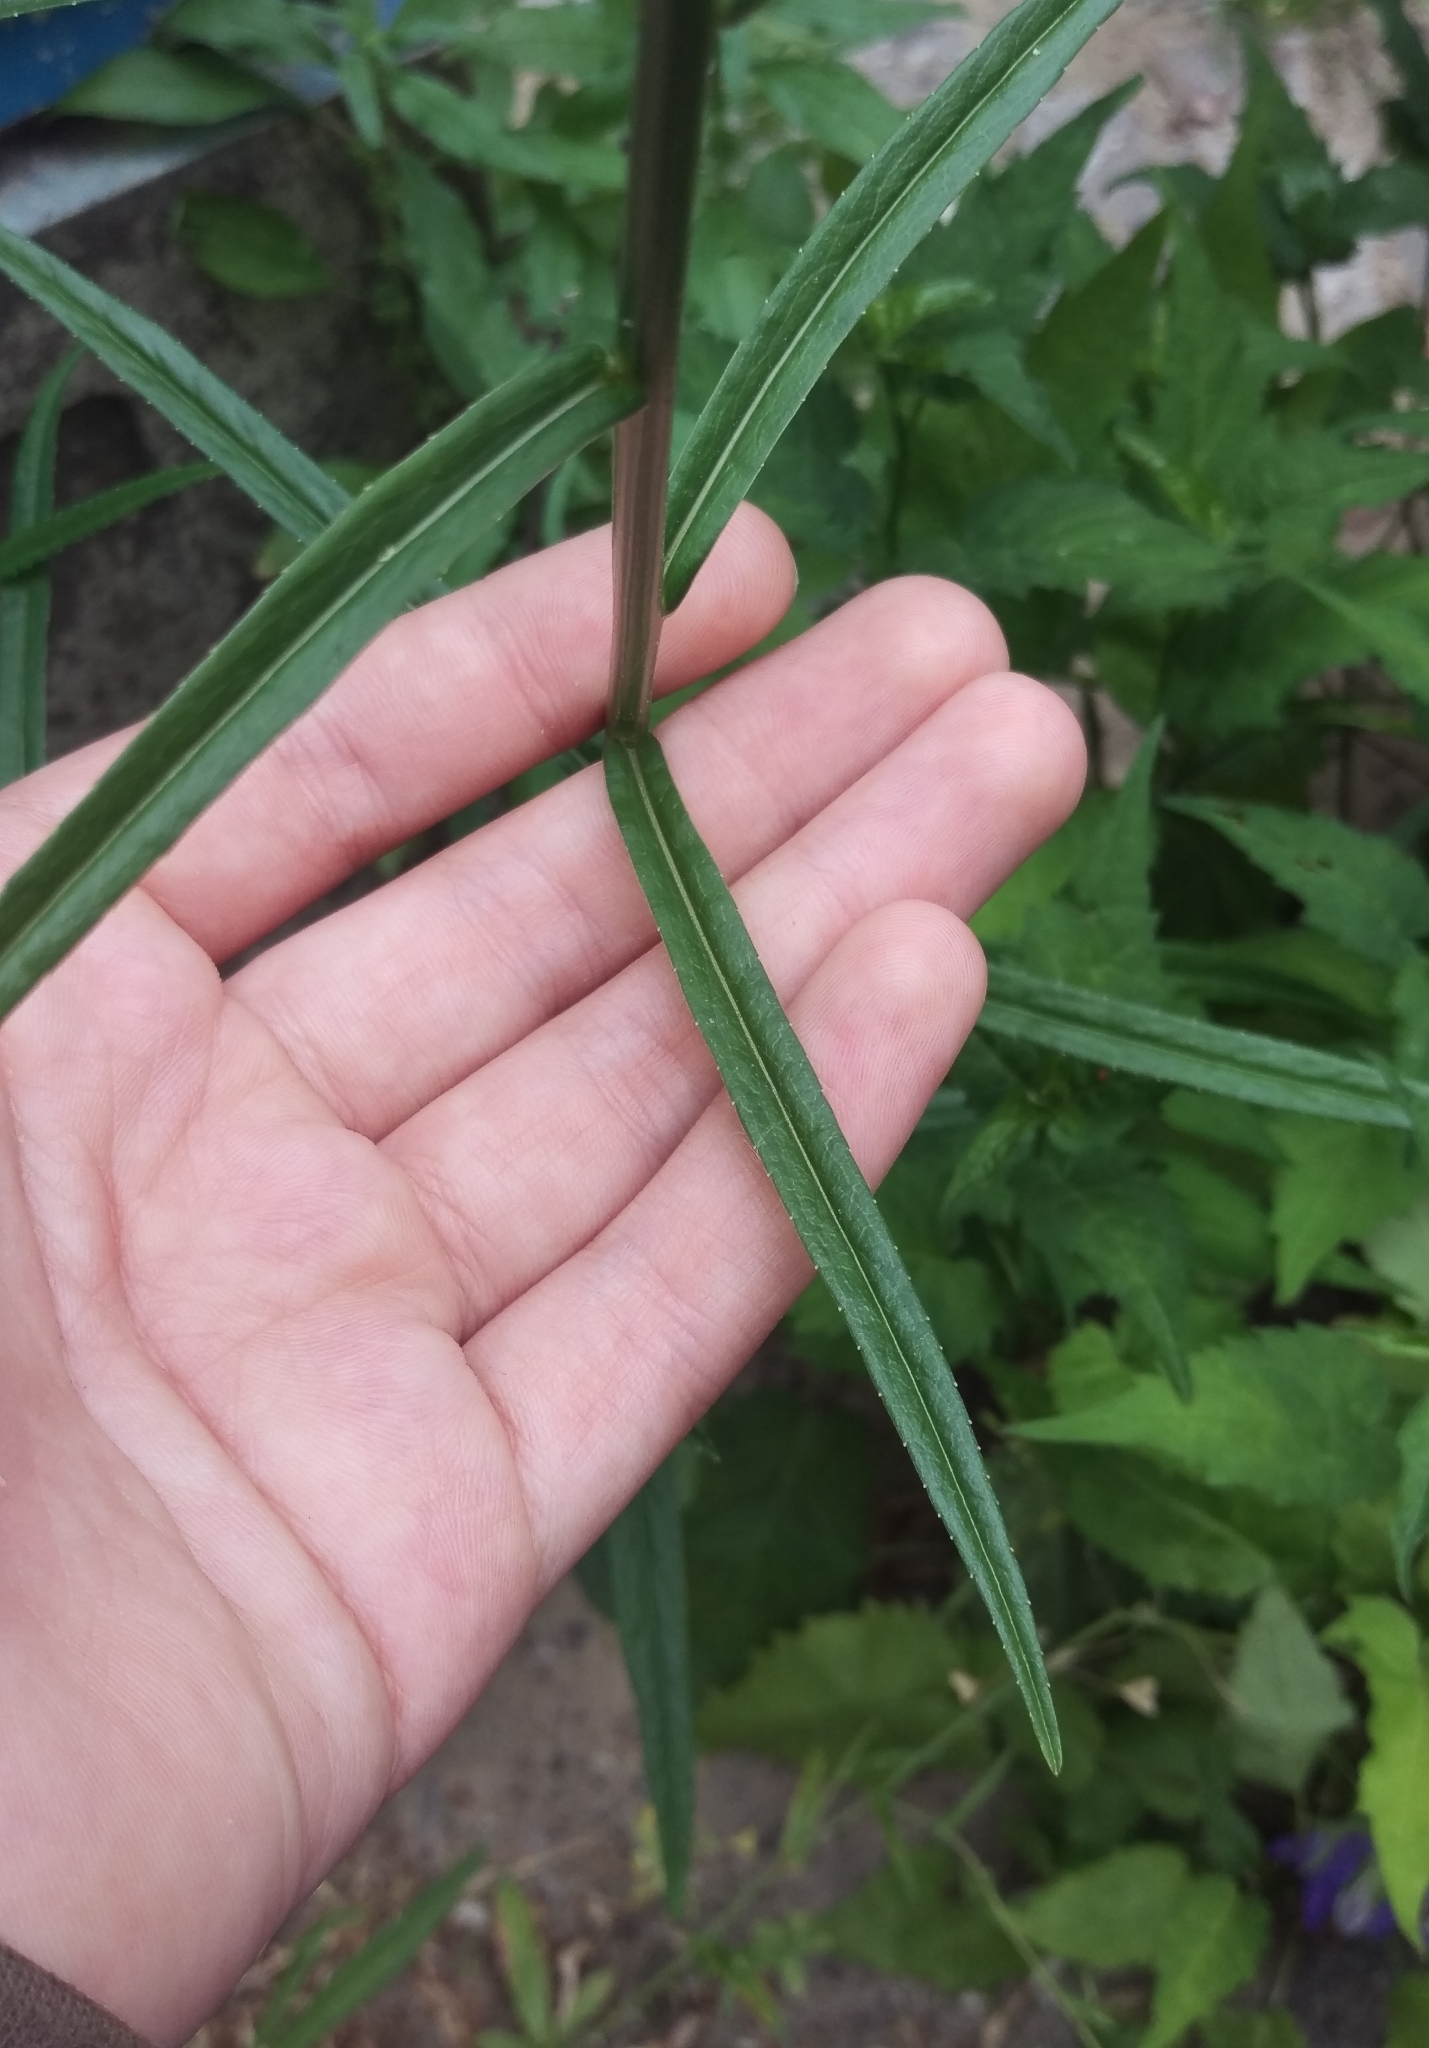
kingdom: Plantae
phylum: Tracheophyta
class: Magnoliopsida
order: Asterales
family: Campanulaceae
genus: Campanula
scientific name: Campanula persicifolia
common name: Peach-leaved bellflower
